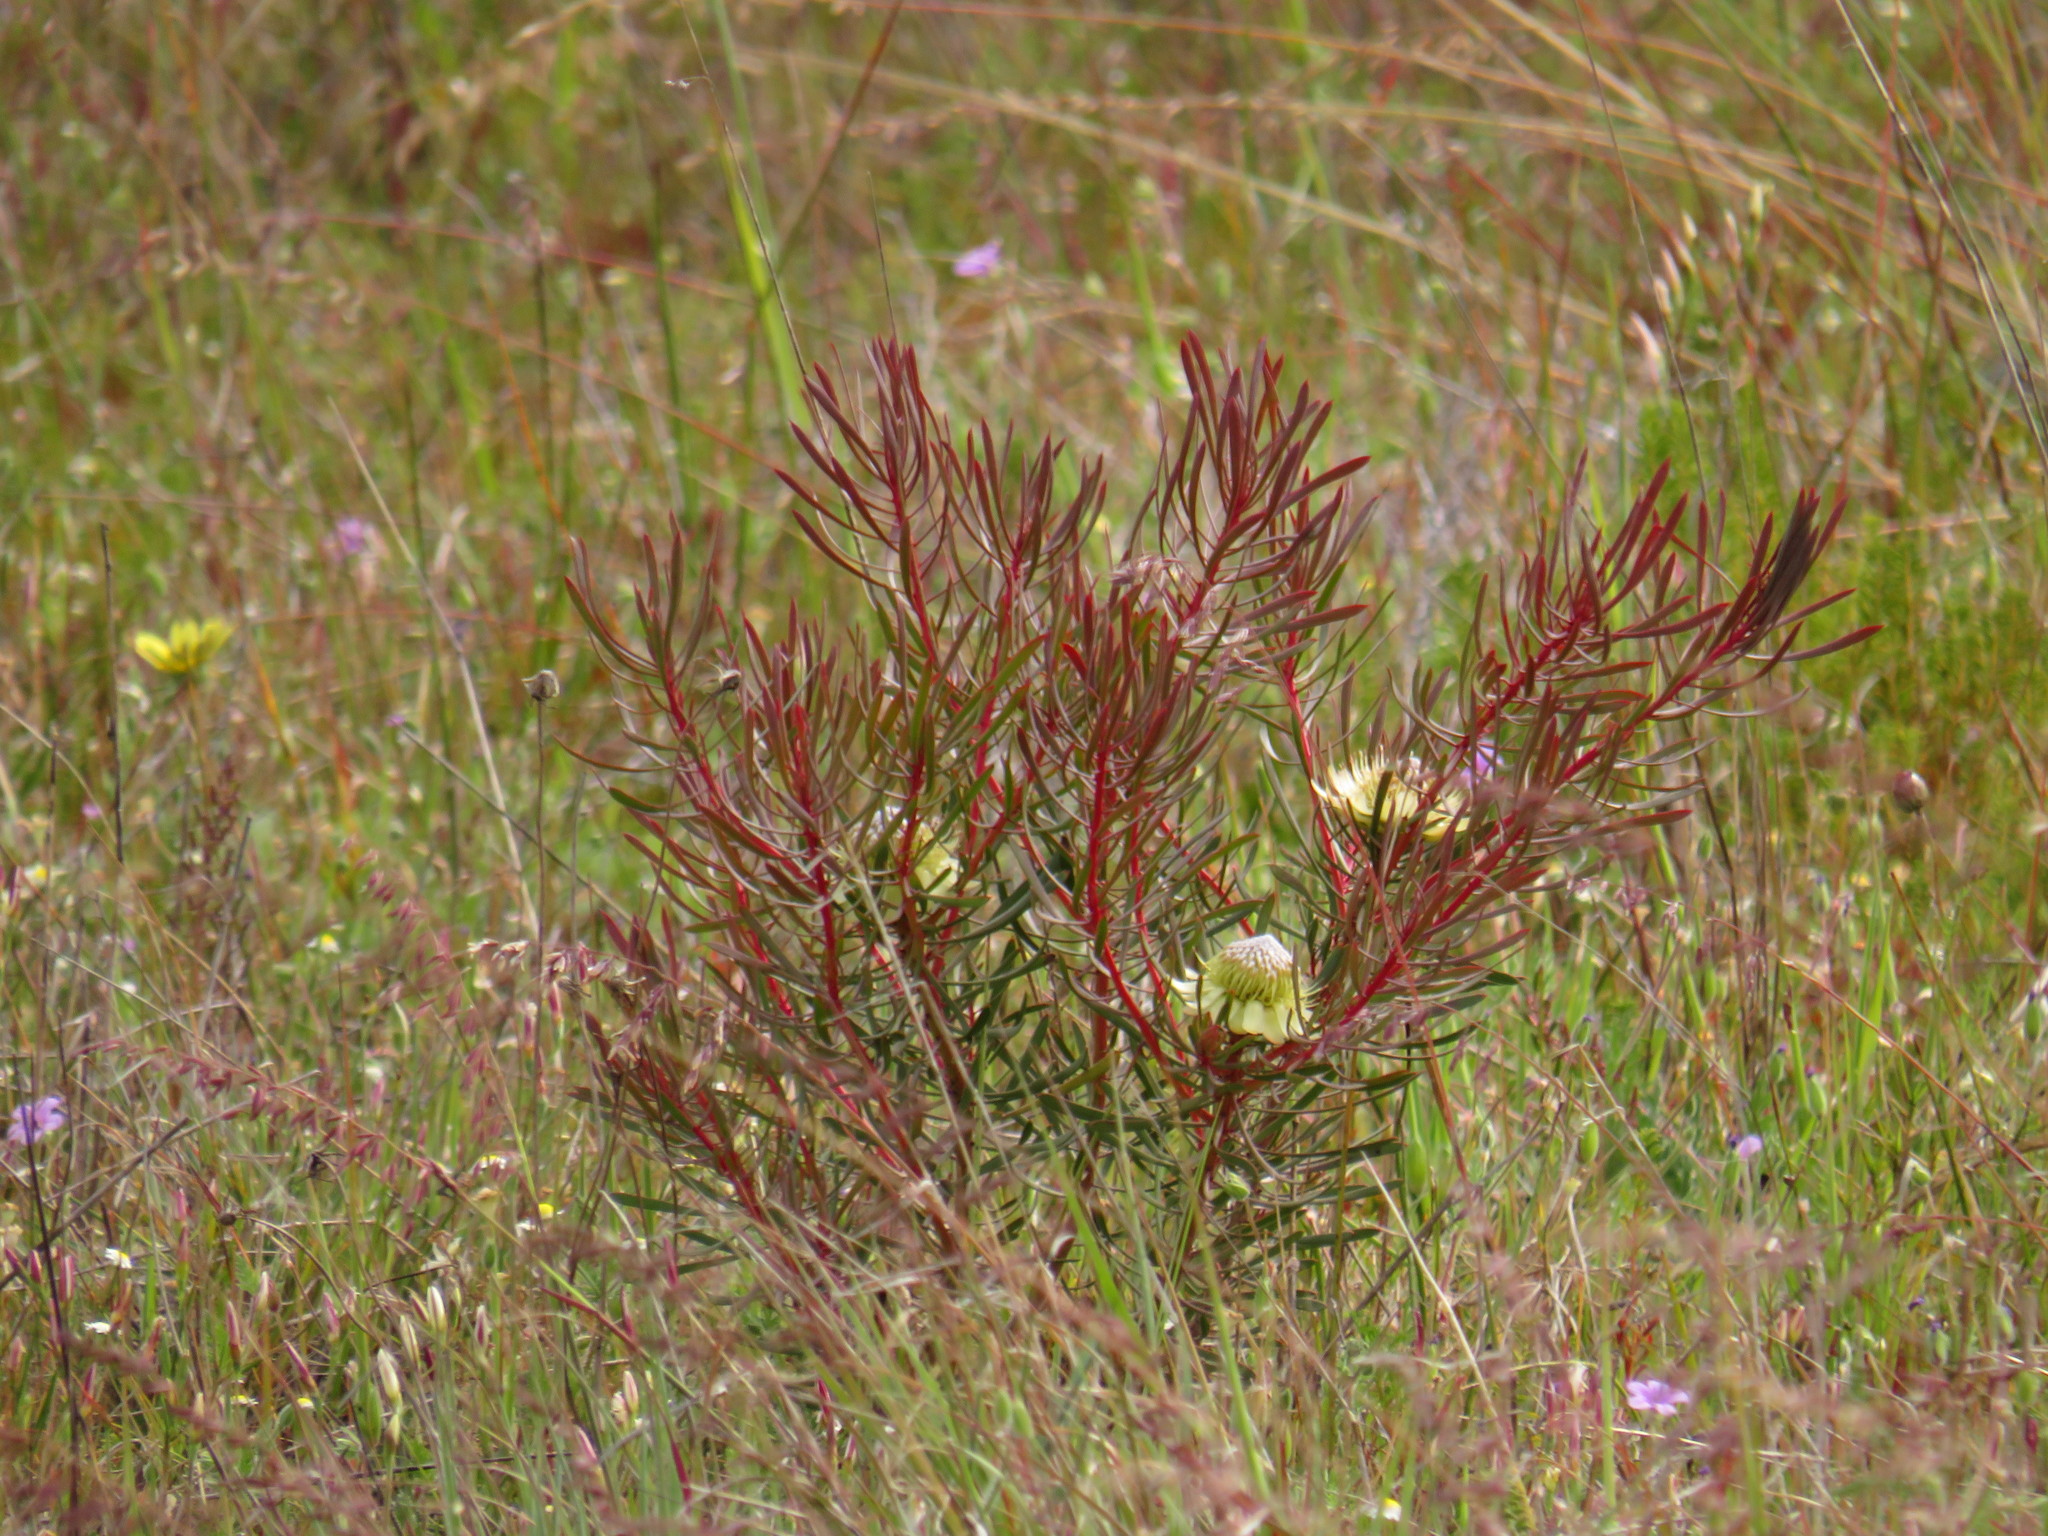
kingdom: Plantae
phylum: Tracheophyta
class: Magnoliopsida
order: Proteales
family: Proteaceae
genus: Protea
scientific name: Protea scolymocephala
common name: Thistle sugarbush
